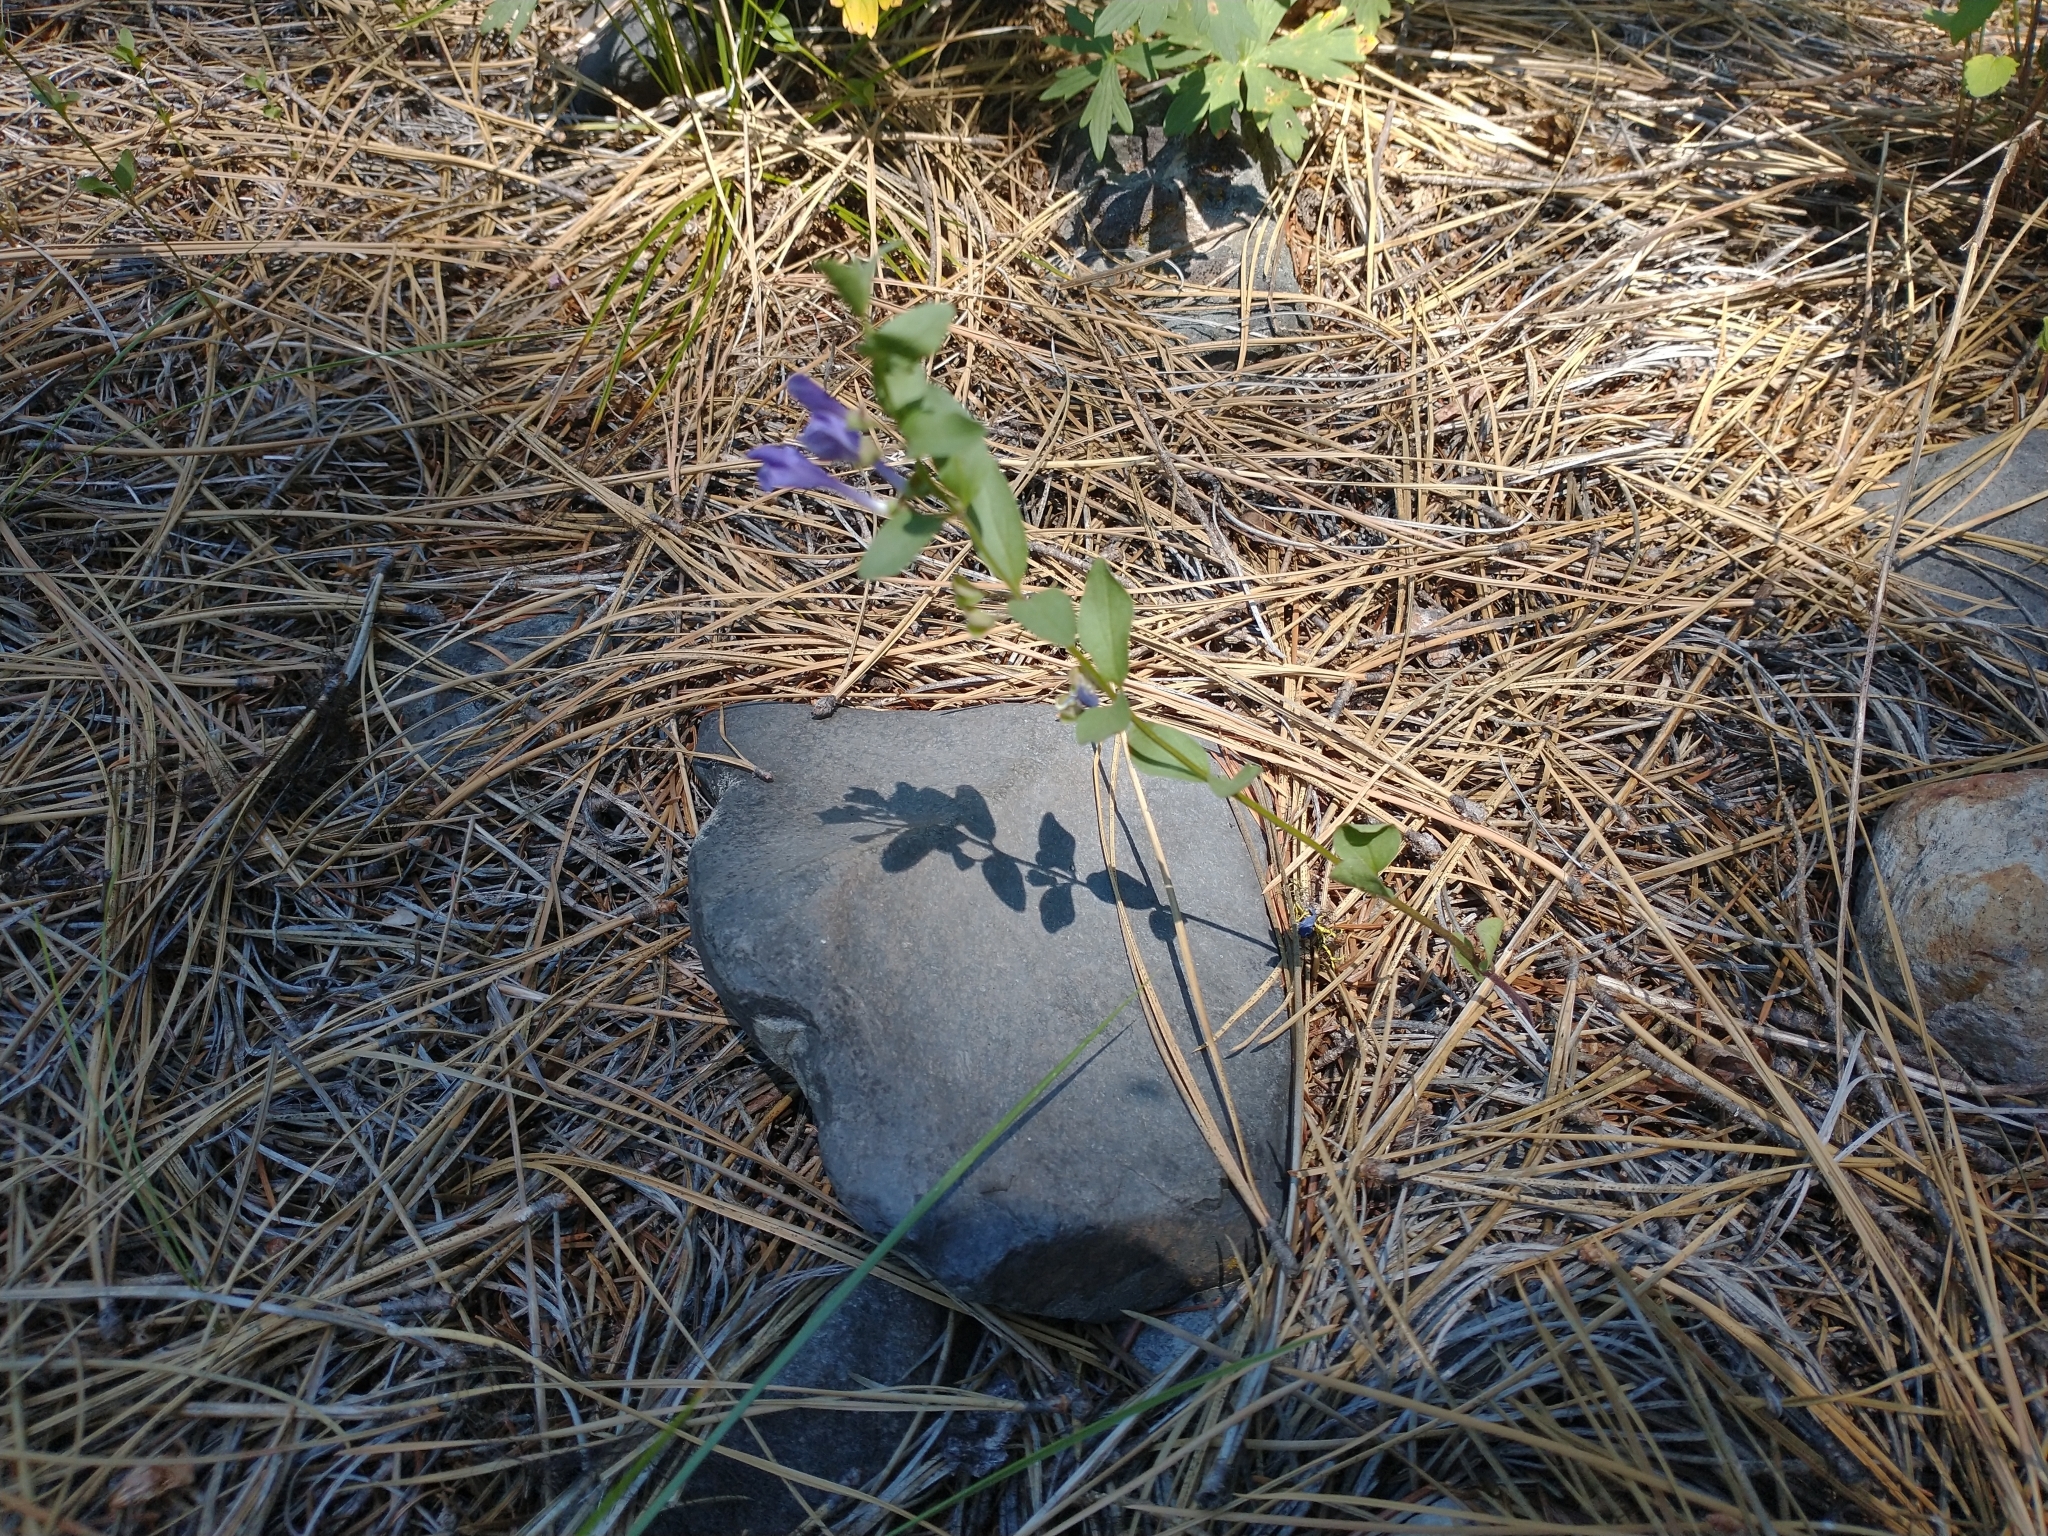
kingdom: Plantae
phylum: Tracheophyta
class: Magnoliopsida
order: Lamiales
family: Lamiaceae
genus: Scutellaria
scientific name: Scutellaria angustifolia
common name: Narrow-leaved skullcap
